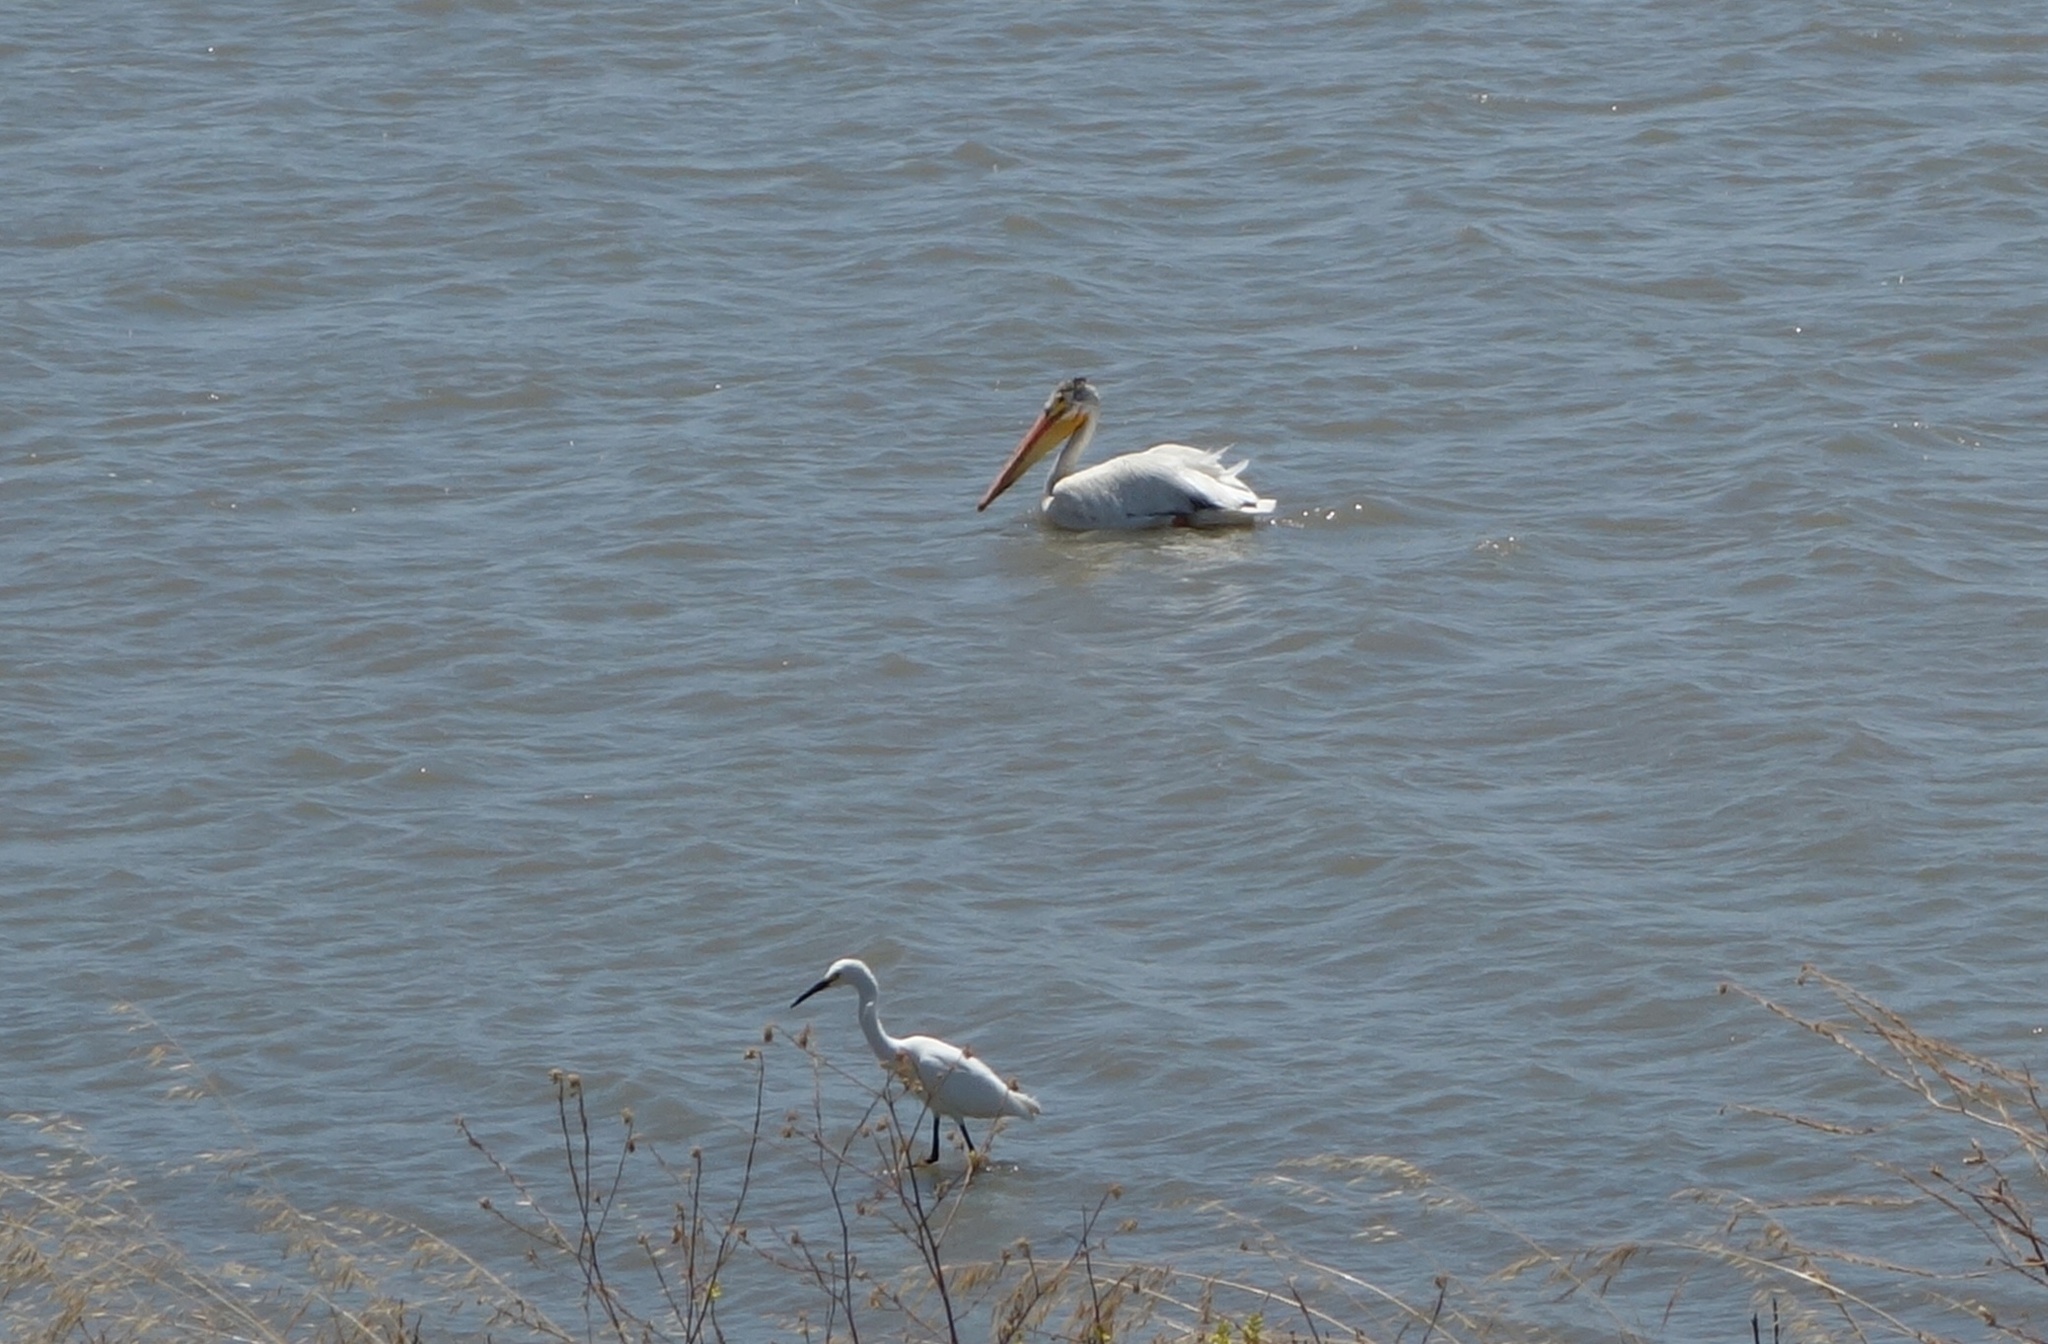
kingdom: Animalia
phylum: Chordata
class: Aves
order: Pelecaniformes
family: Ardeidae
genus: Egretta
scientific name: Egretta thula
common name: Snowy egret
